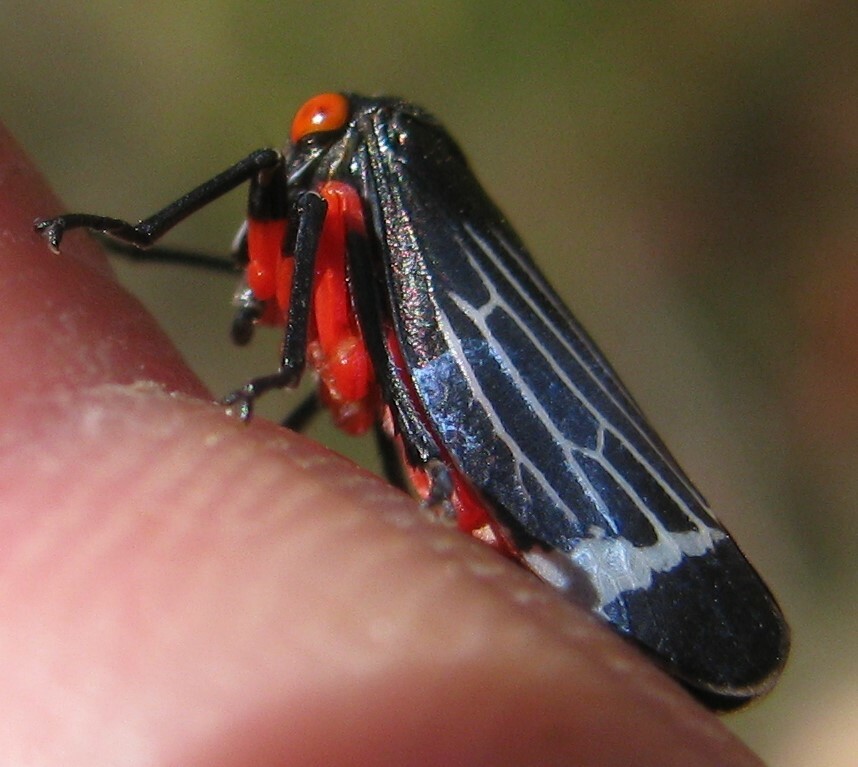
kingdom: Animalia
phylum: Arthropoda
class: Insecta
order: Hemiptera
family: Cicadellidae
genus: Eurymeloides
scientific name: Eurymeloides lineata
